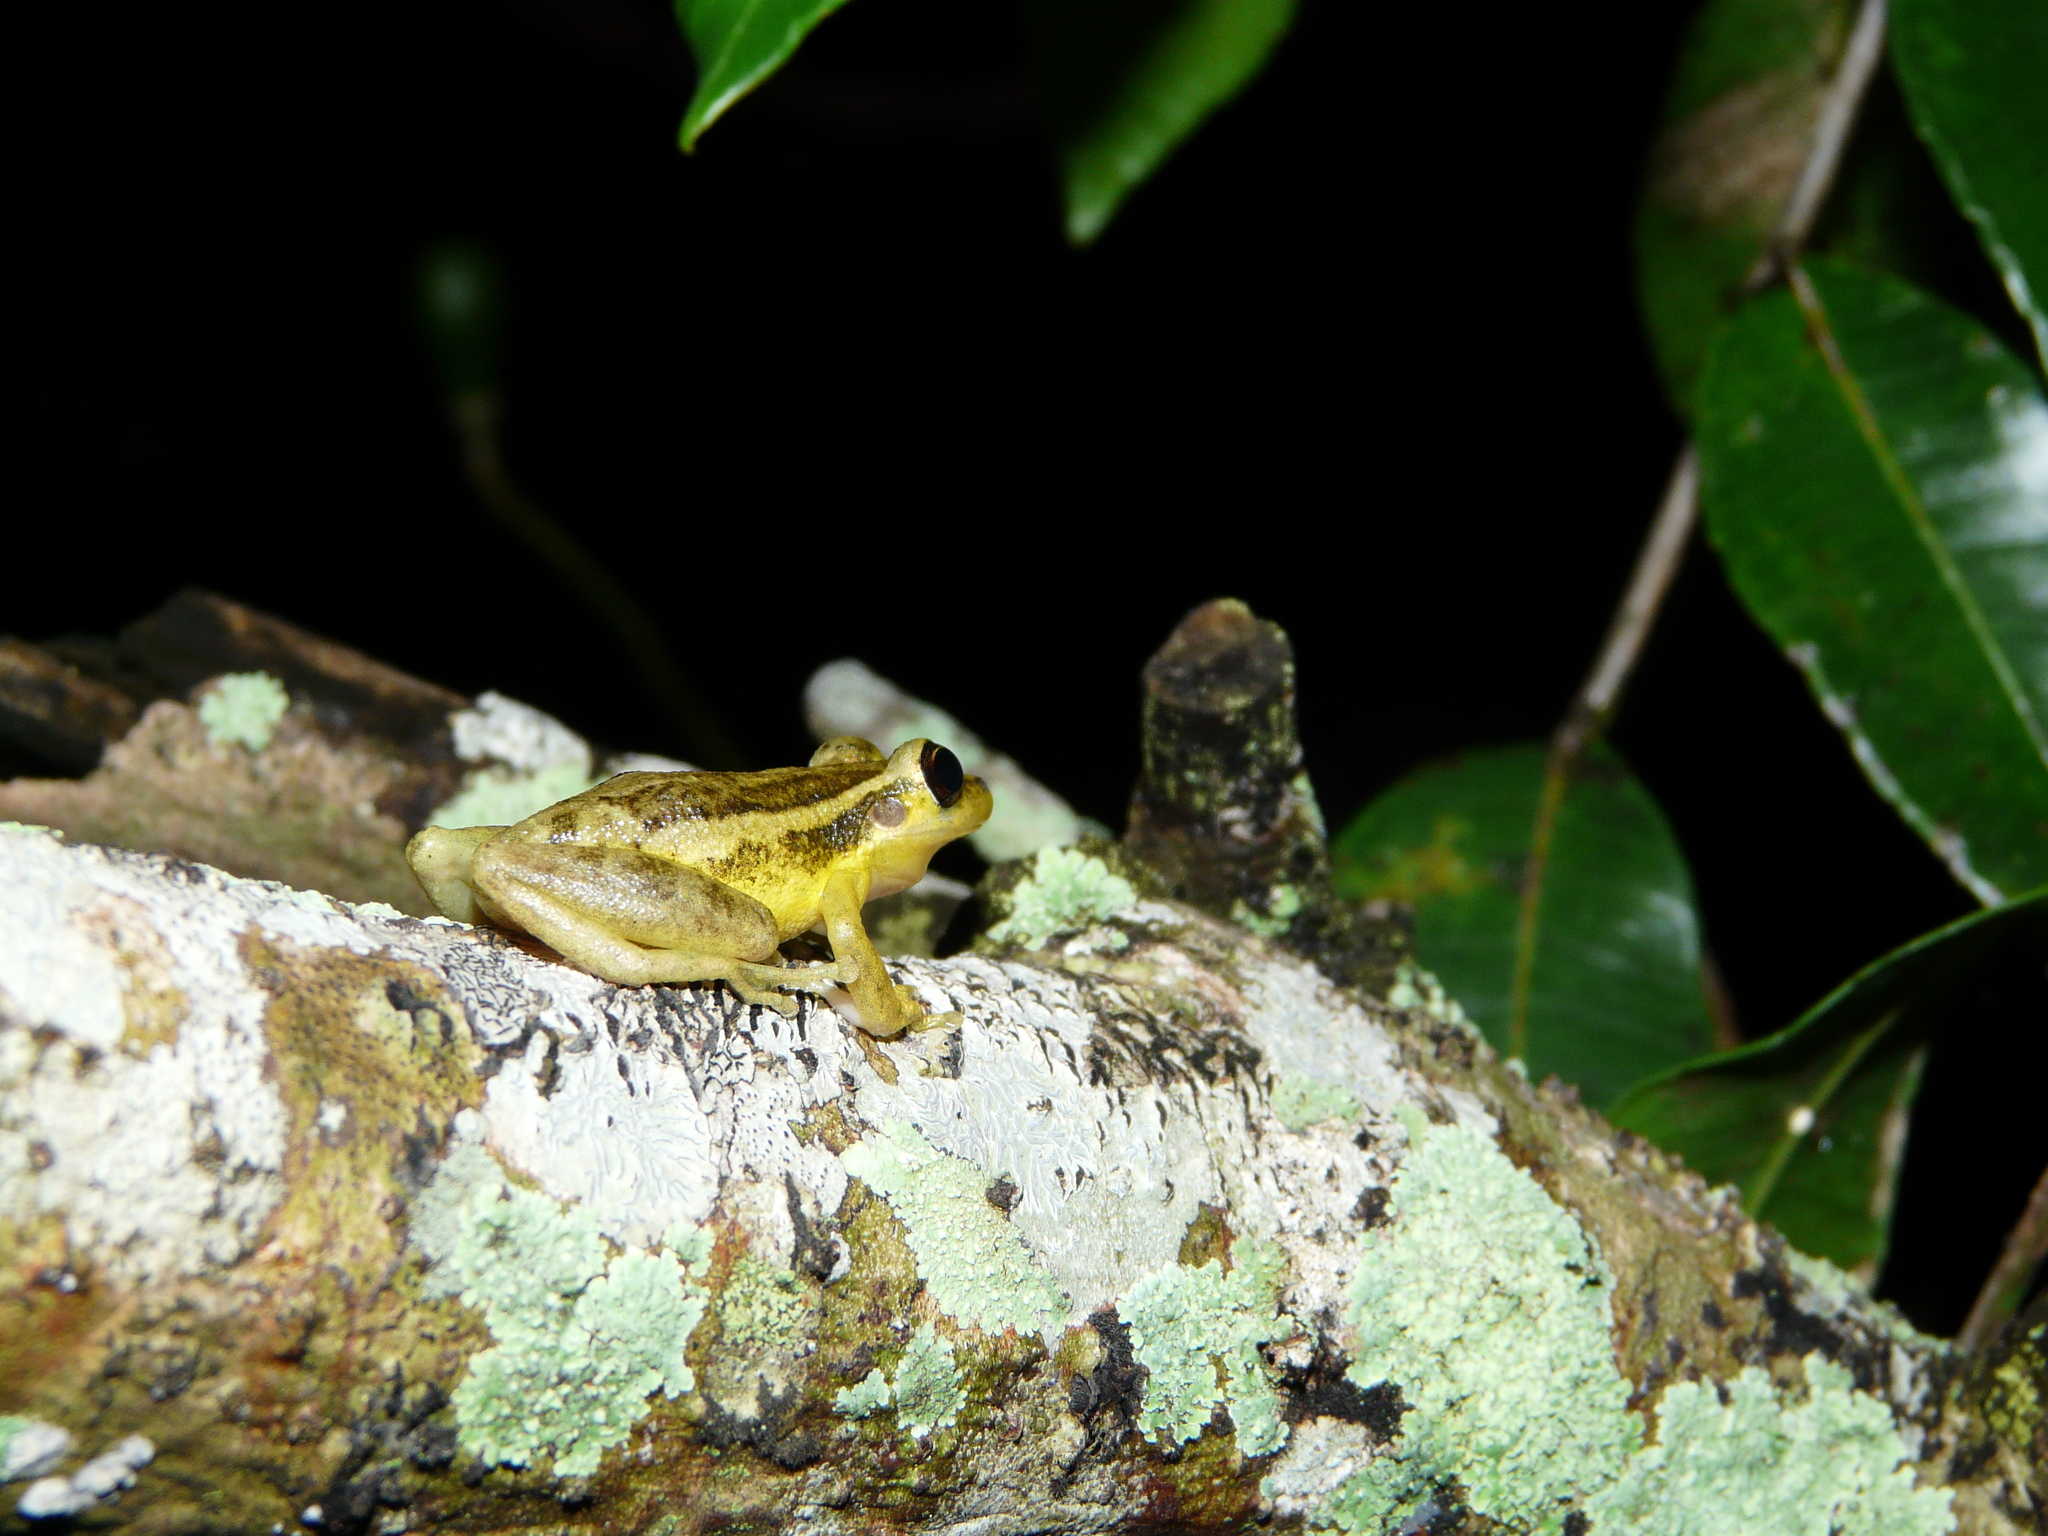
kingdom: Animalia
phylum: Chordata
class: Amphibia
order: Anura
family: Hylidae
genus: Scinax
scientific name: Scinax ruber
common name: Red snouted treefrog
